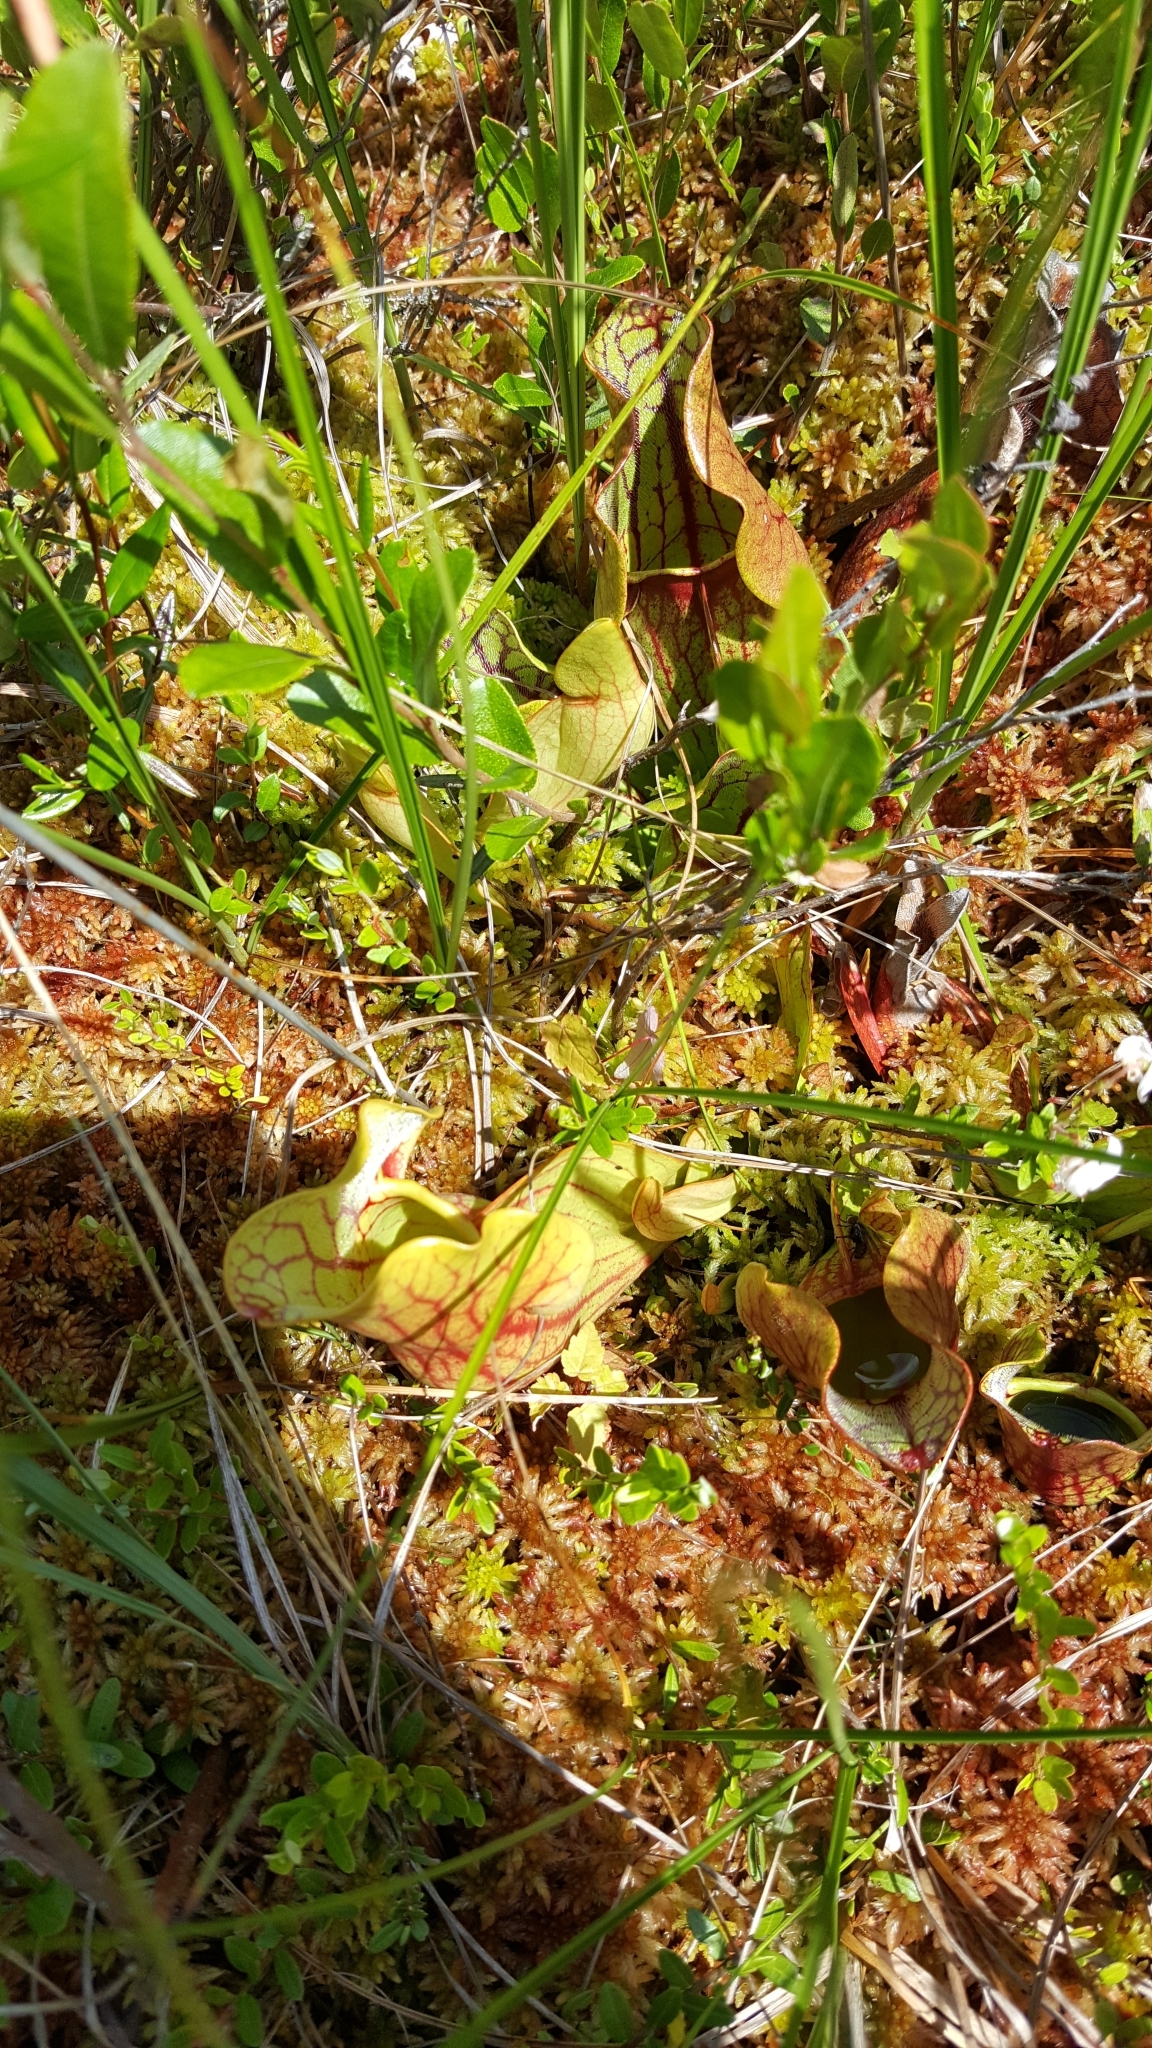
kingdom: Plantae
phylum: Tracheophyta
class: Magnoliopsida
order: Ericales
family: Sarraceniaceae
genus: Sarracenia
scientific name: Sarracenia purpurea
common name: Pitcherplant
